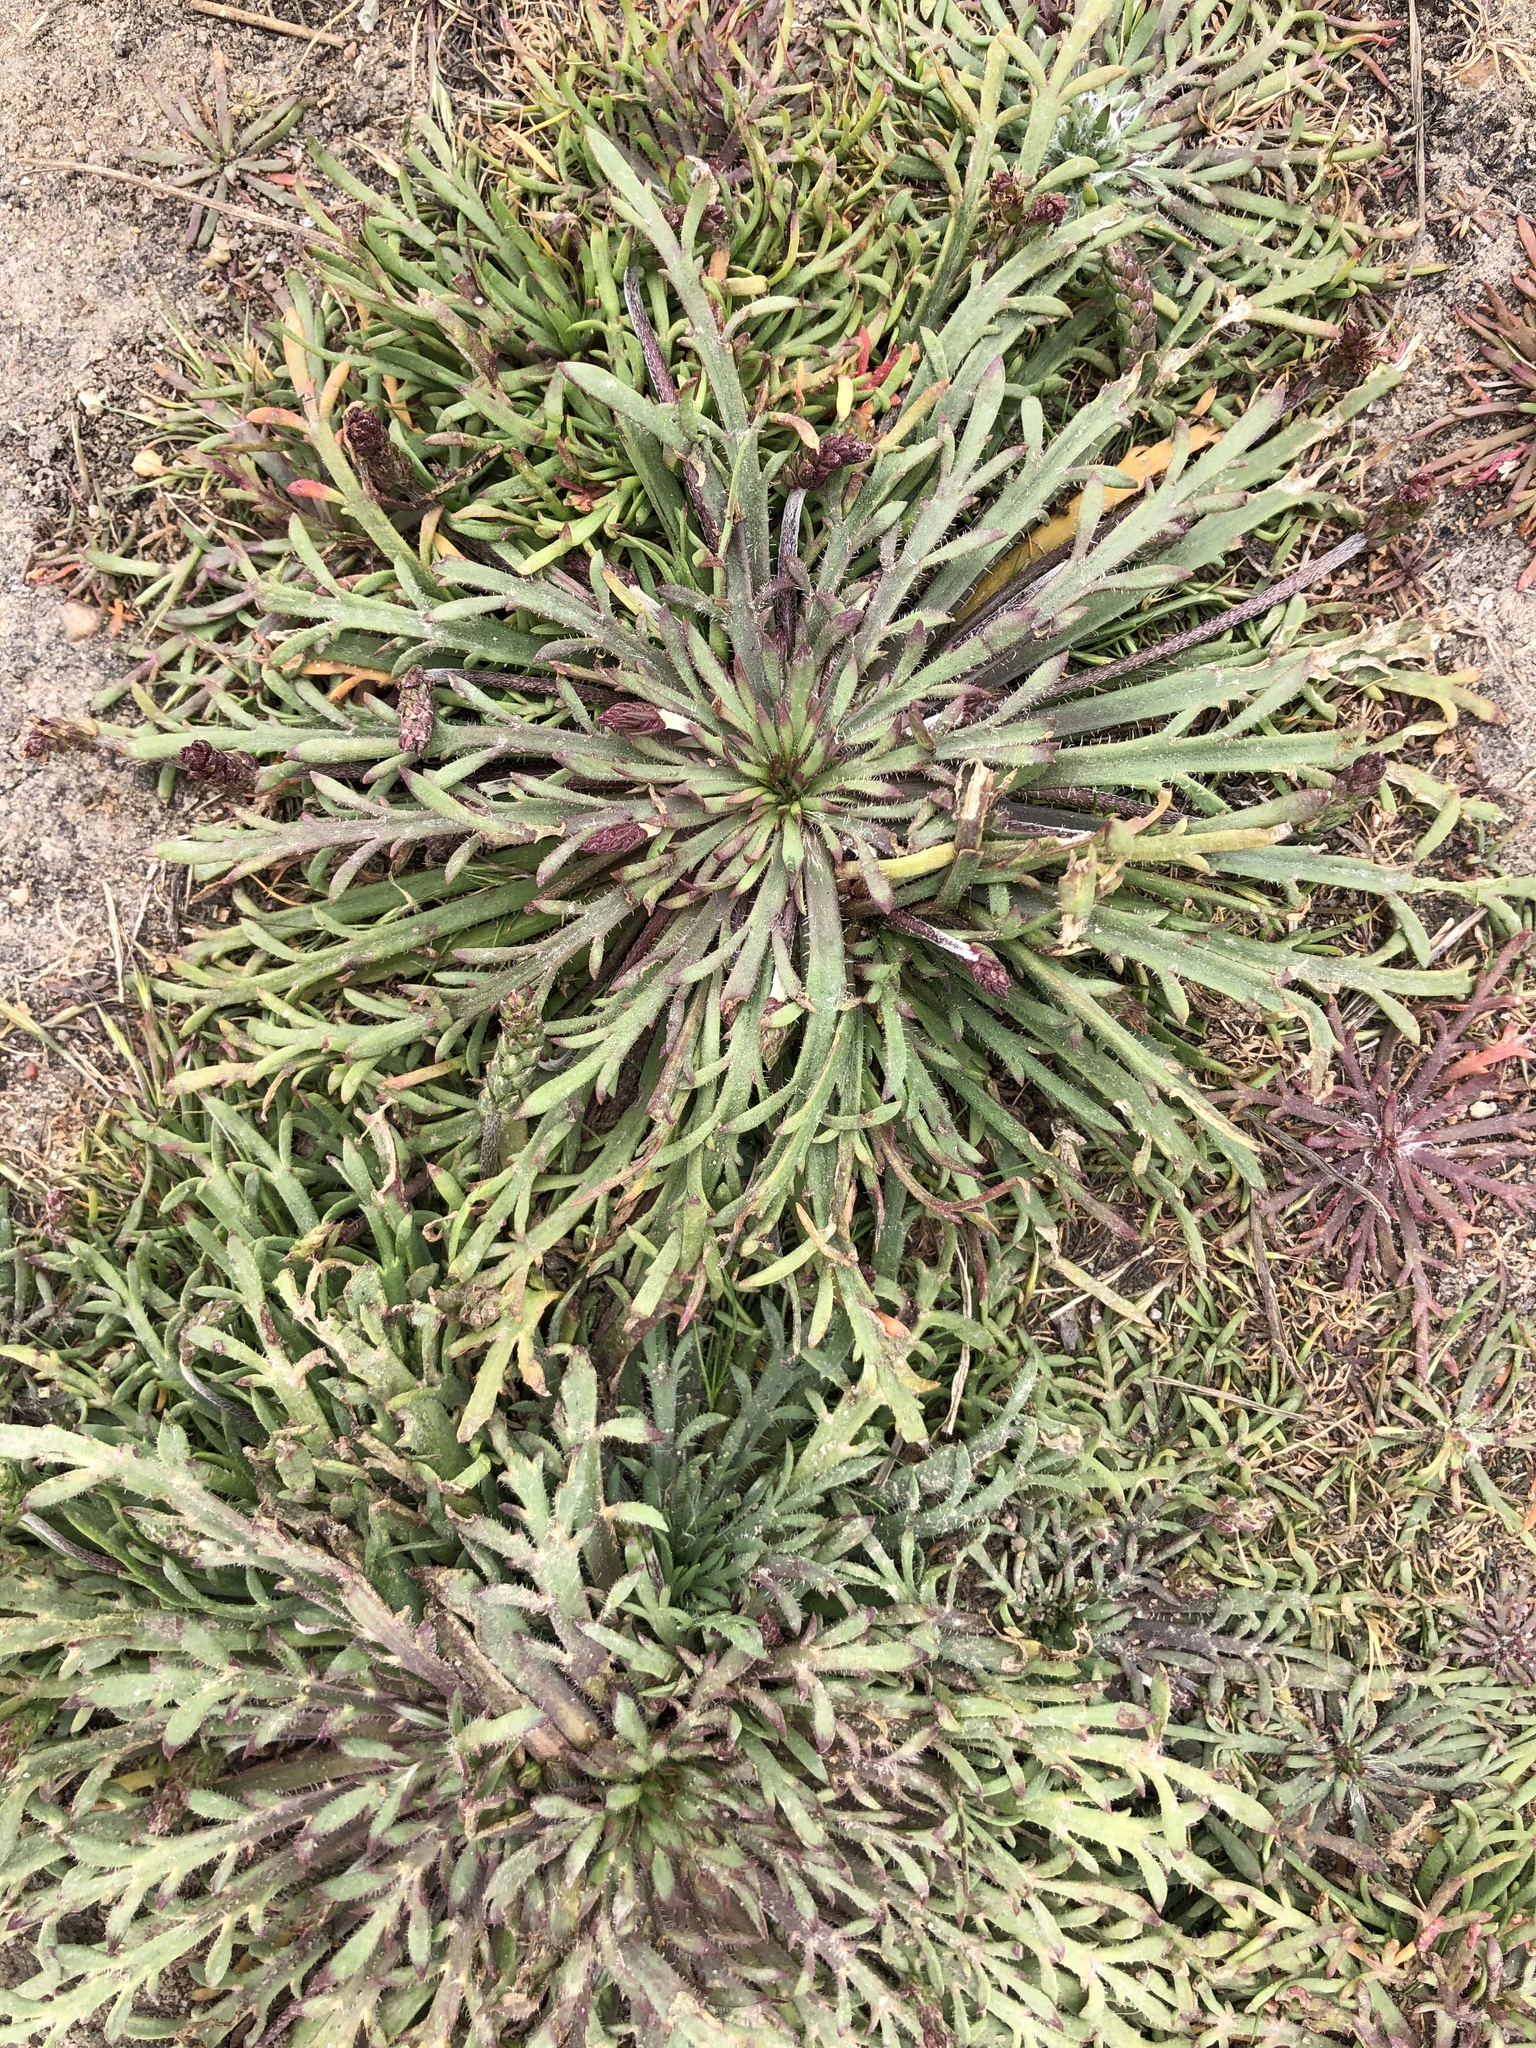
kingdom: Plantae
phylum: Tracheophyta
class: Magnoliopsida
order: Lamiales
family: Plantaginaceae
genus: Plantago
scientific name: Plantago coronopus
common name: Buck's-horn plantain
